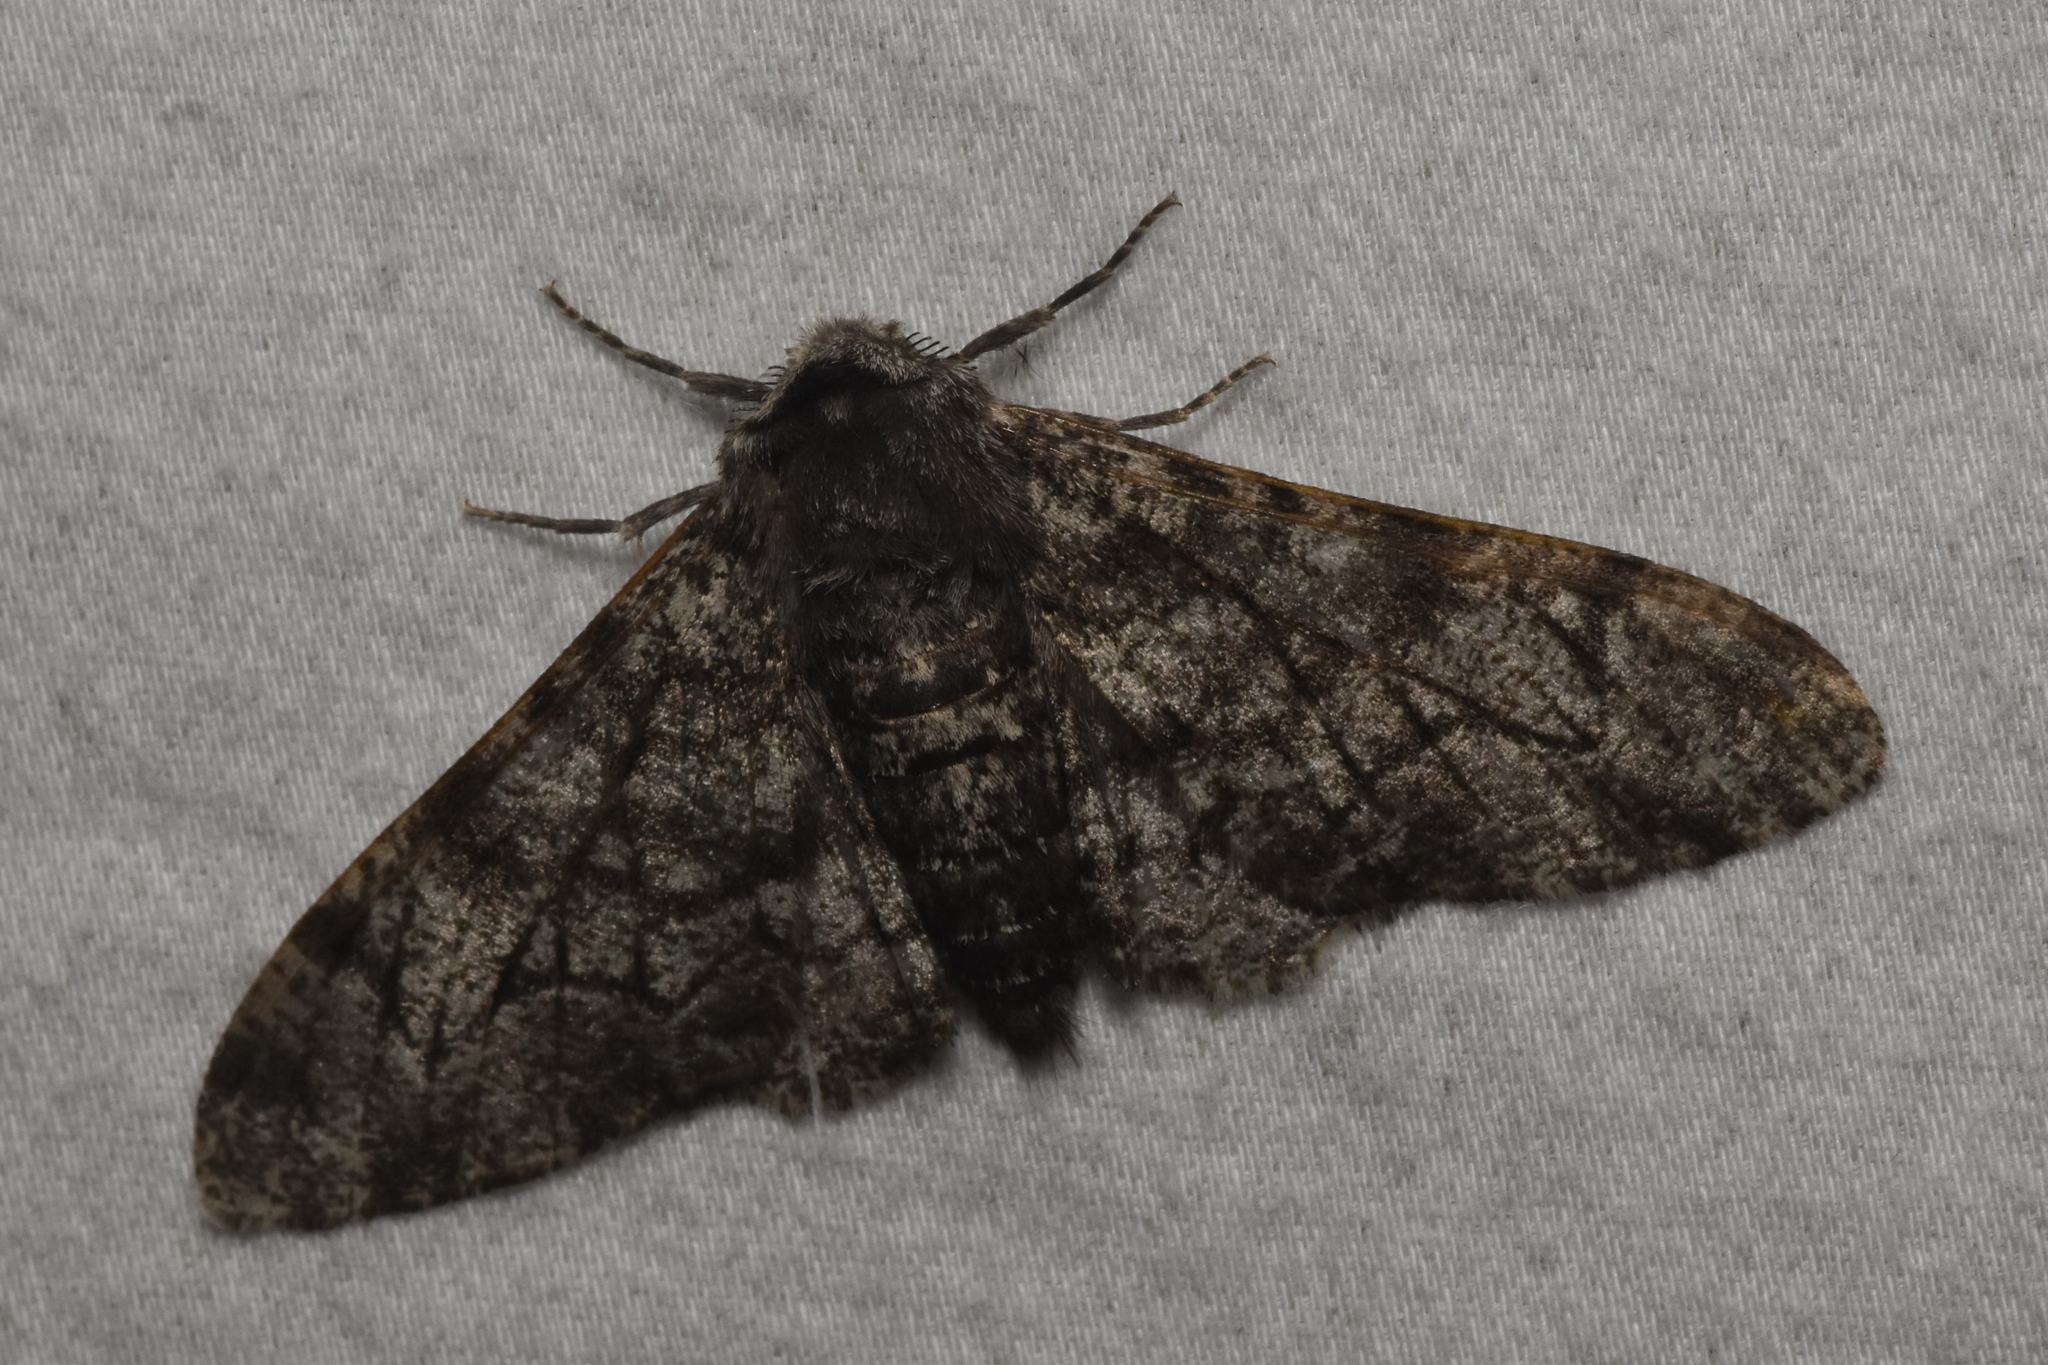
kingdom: Animalia
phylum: Arthropoda
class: Insecta
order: Lepidoptera
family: Geometridae
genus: Biston
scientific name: Biston betularia
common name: Peppered moth
